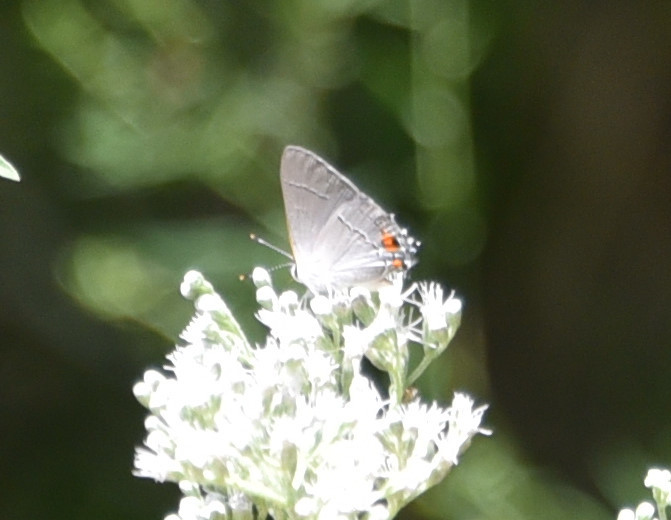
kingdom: Animalia
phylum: Arthropoda
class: Insecta
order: Lepidoptera
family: Lycaenidae
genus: Strymon
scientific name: Strymon melinus
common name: Gray hairstreak
